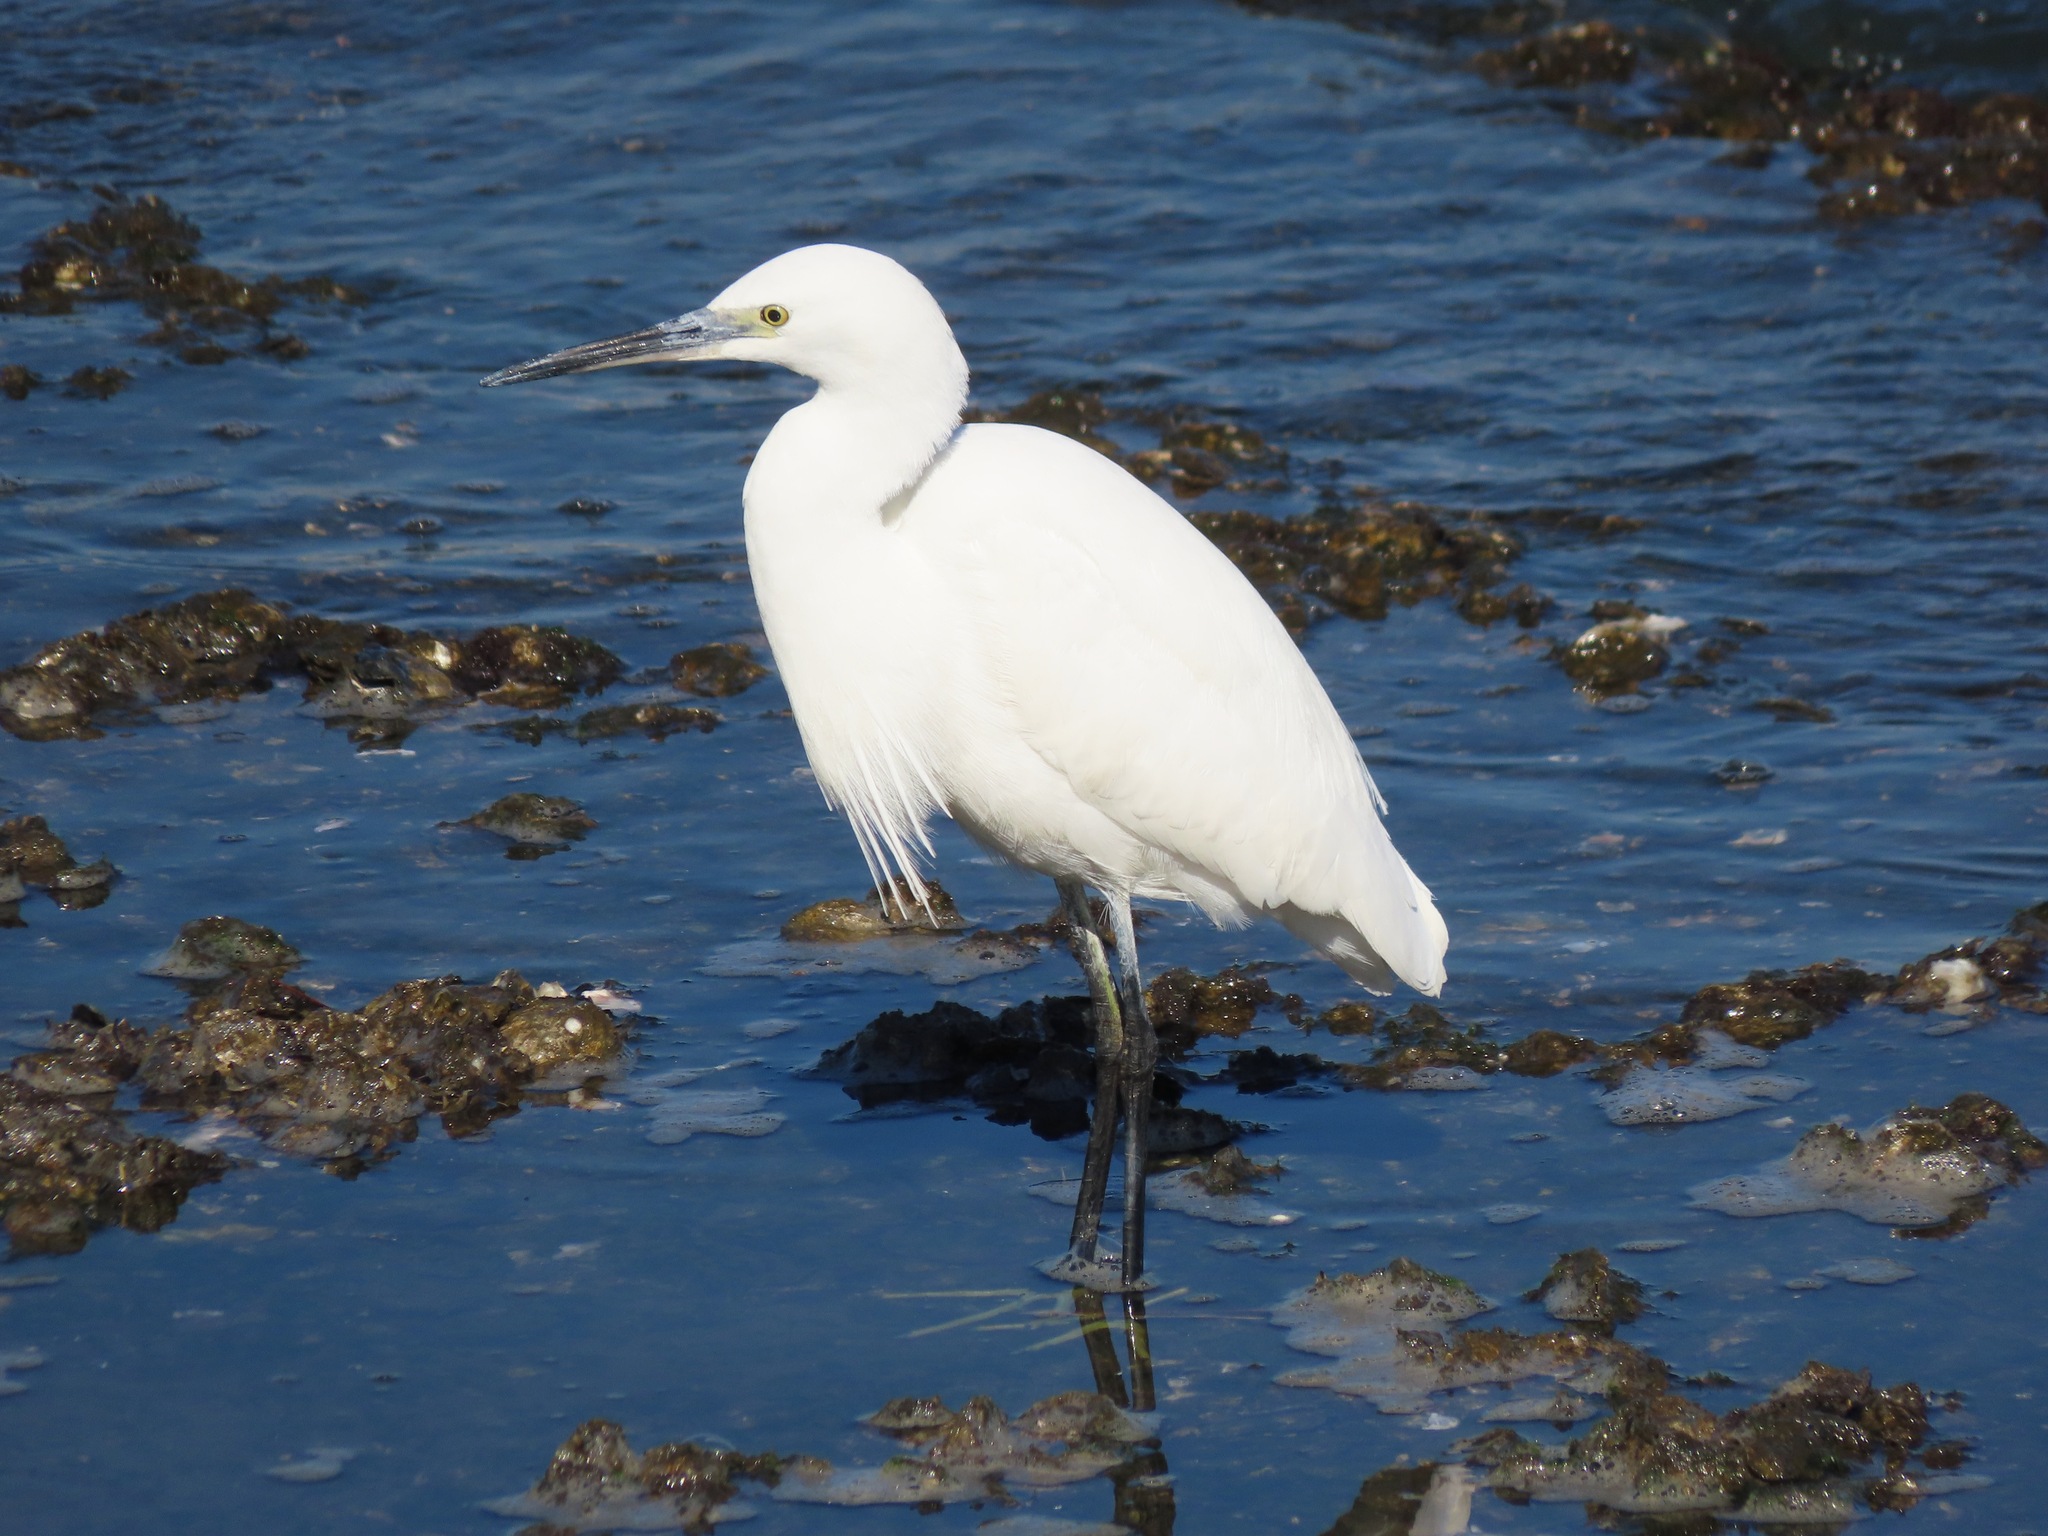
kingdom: Animalia
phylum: Chordata
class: Aves
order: Pelecaniformes
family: Ardeidae
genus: Egretta
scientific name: Egretta garzetta
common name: Little egret
